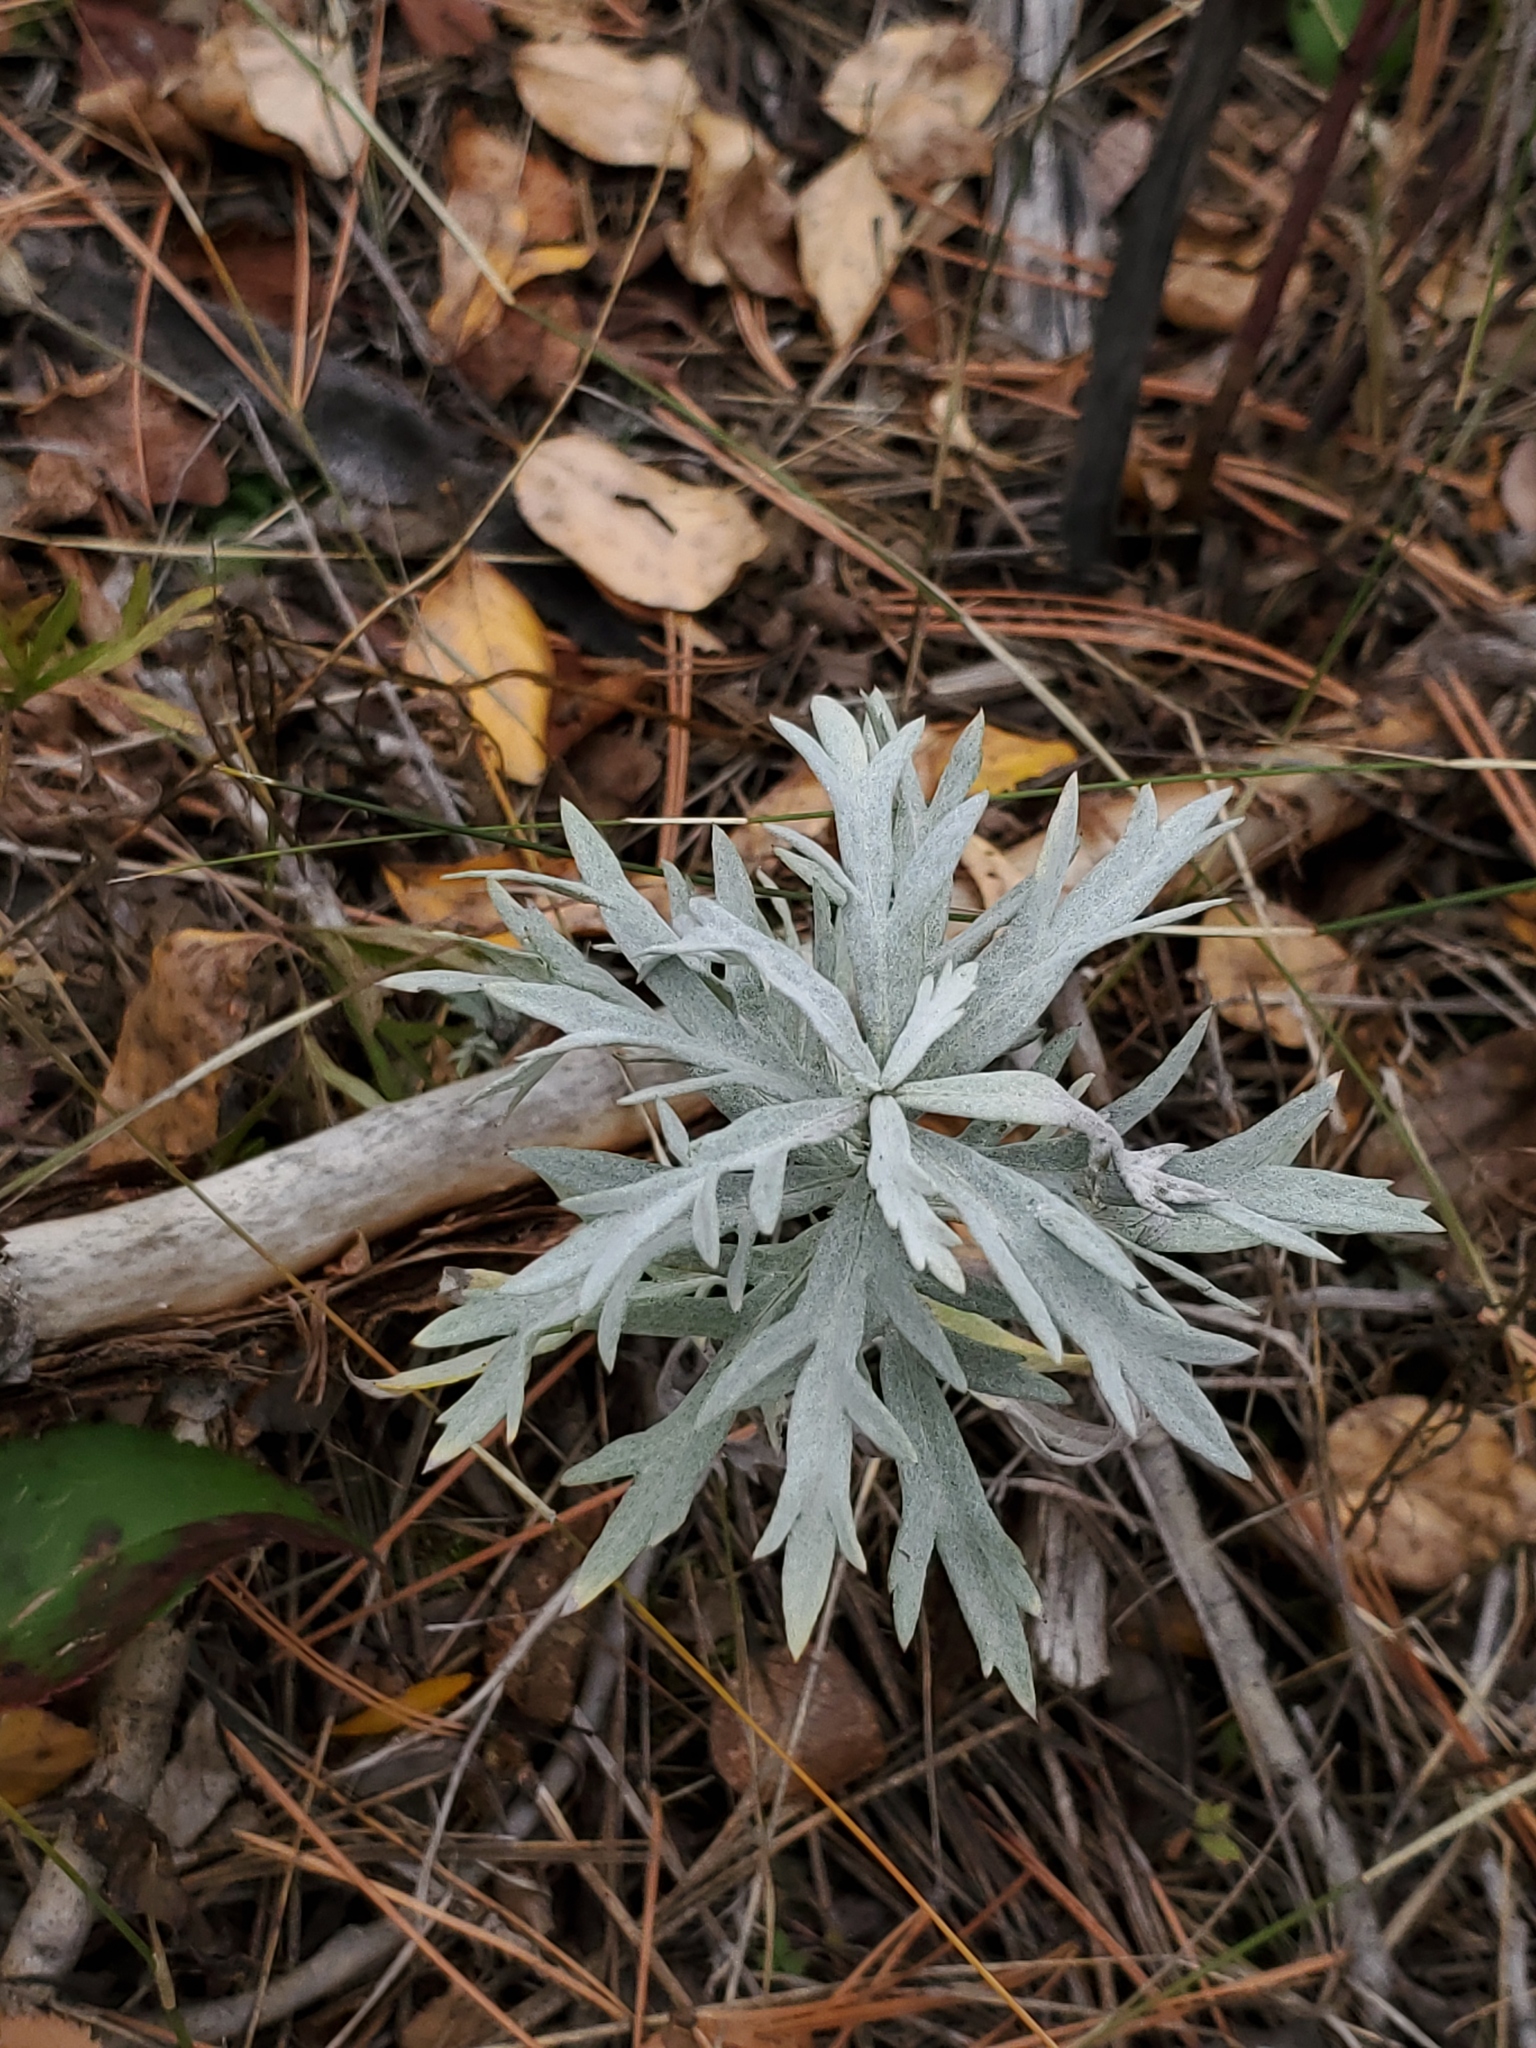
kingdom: Plantae
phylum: Tracheophyta
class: Magnoliopsida
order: Asterales
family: Asteraceae
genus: Artemisia
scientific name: Artemisia ludoviciana
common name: Western mugwort
